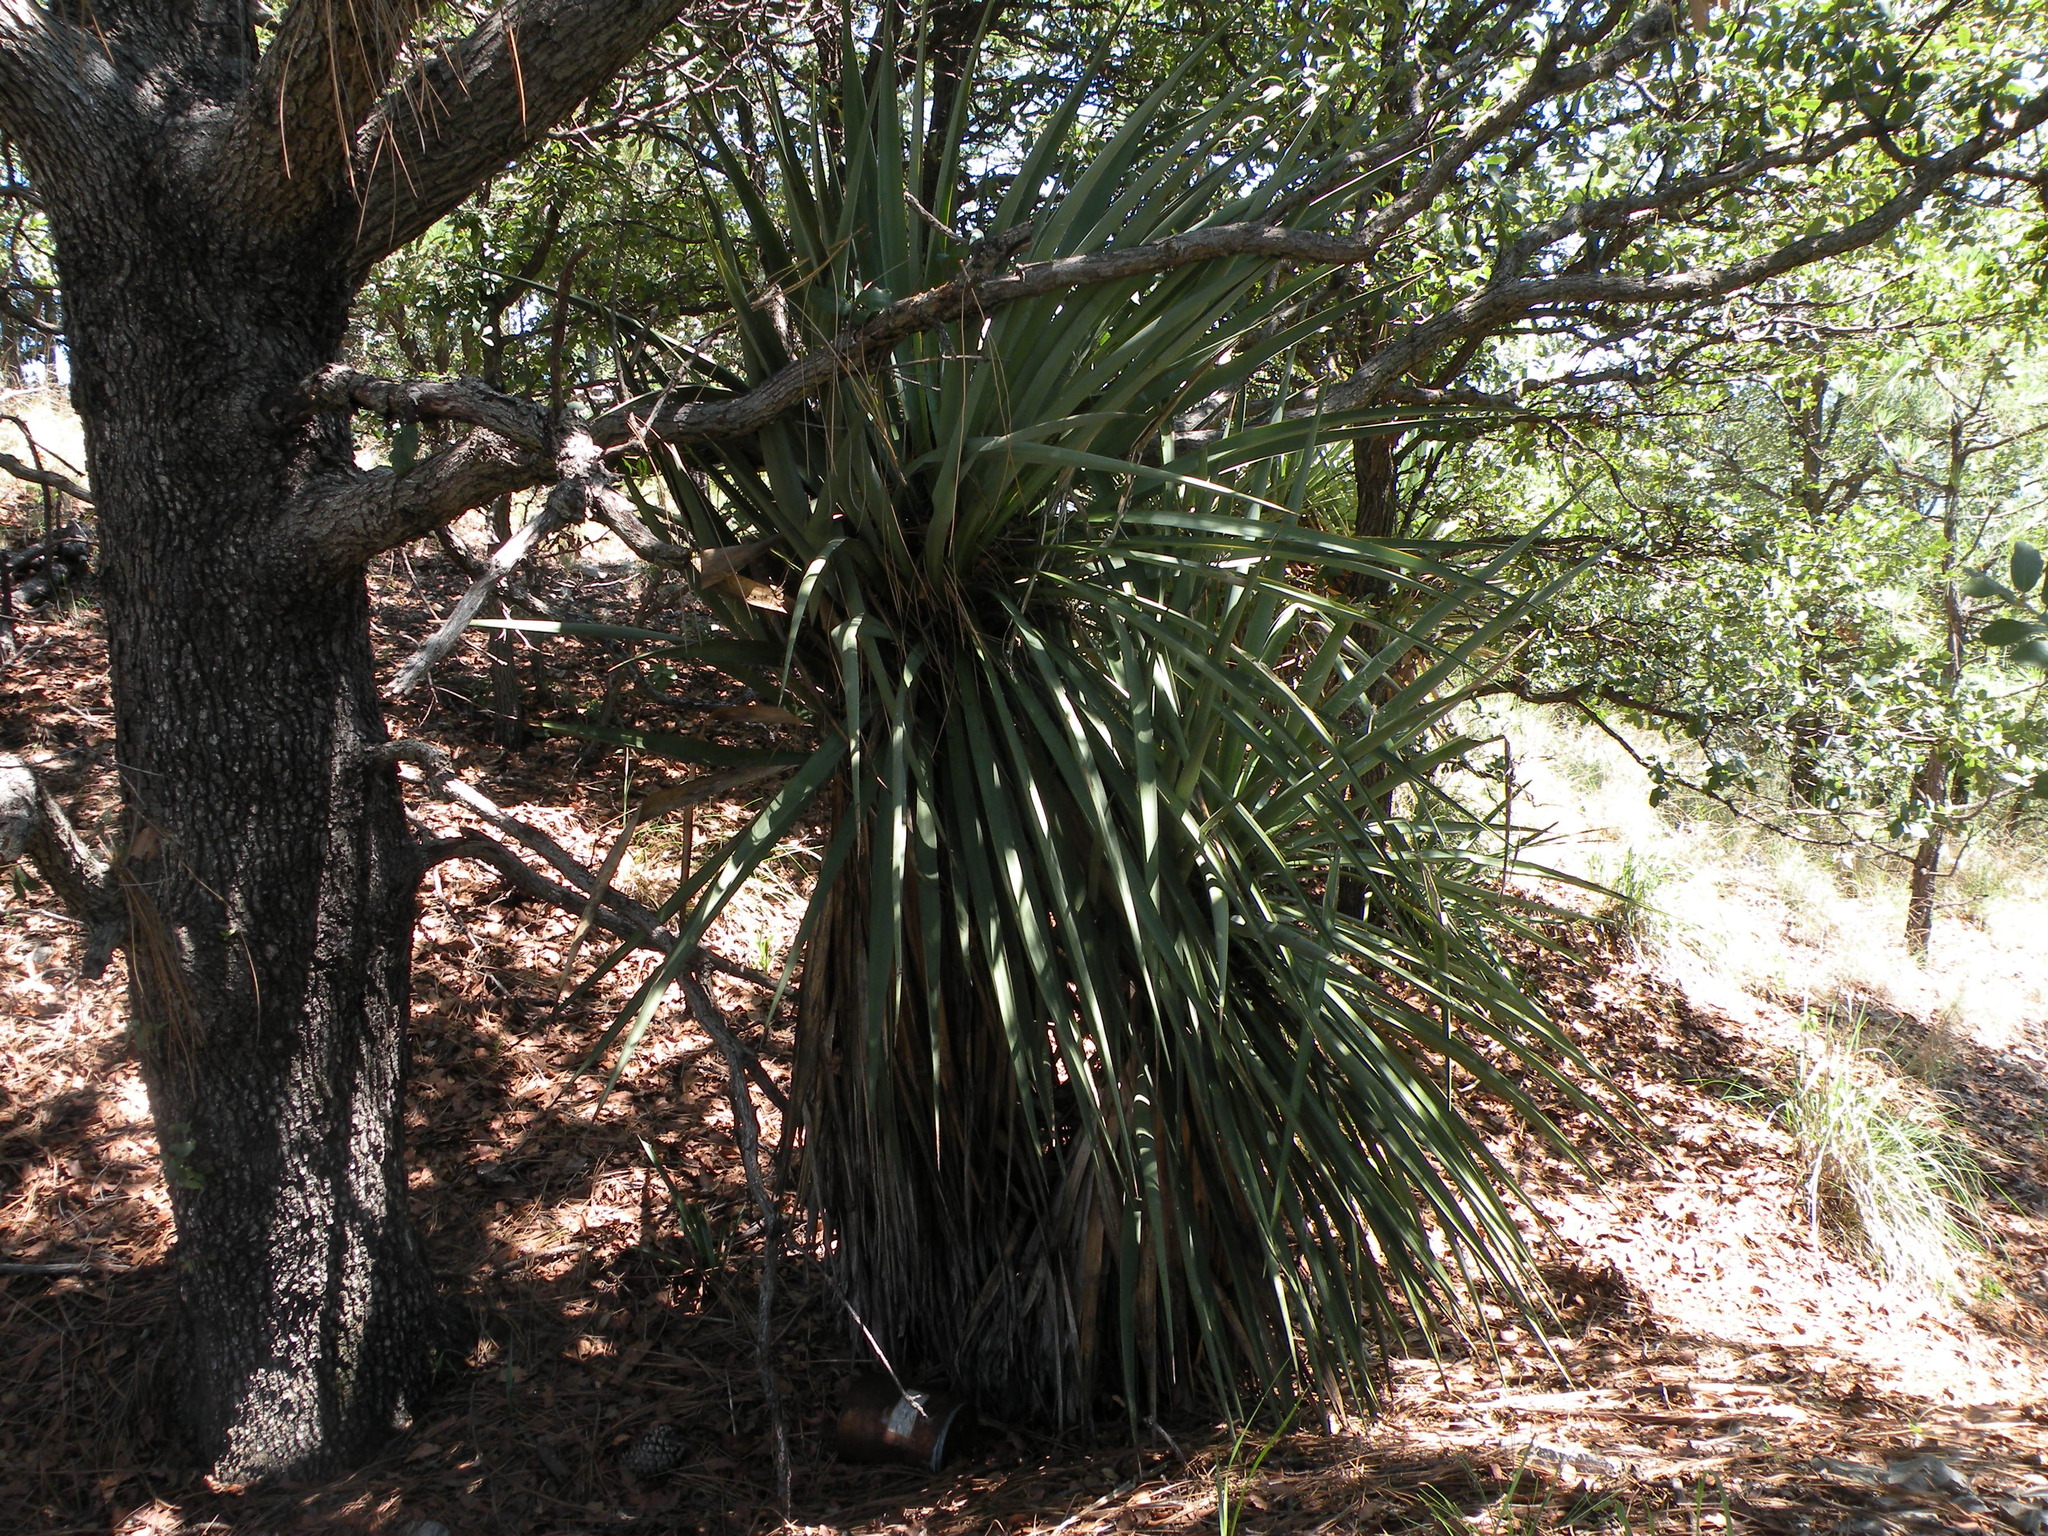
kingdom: Plantae
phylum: Tracheophyta
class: Liliopsida
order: Asparagales
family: Asparagaceae
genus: Yucca
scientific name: Yucca madrensis
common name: Hoary yucca
